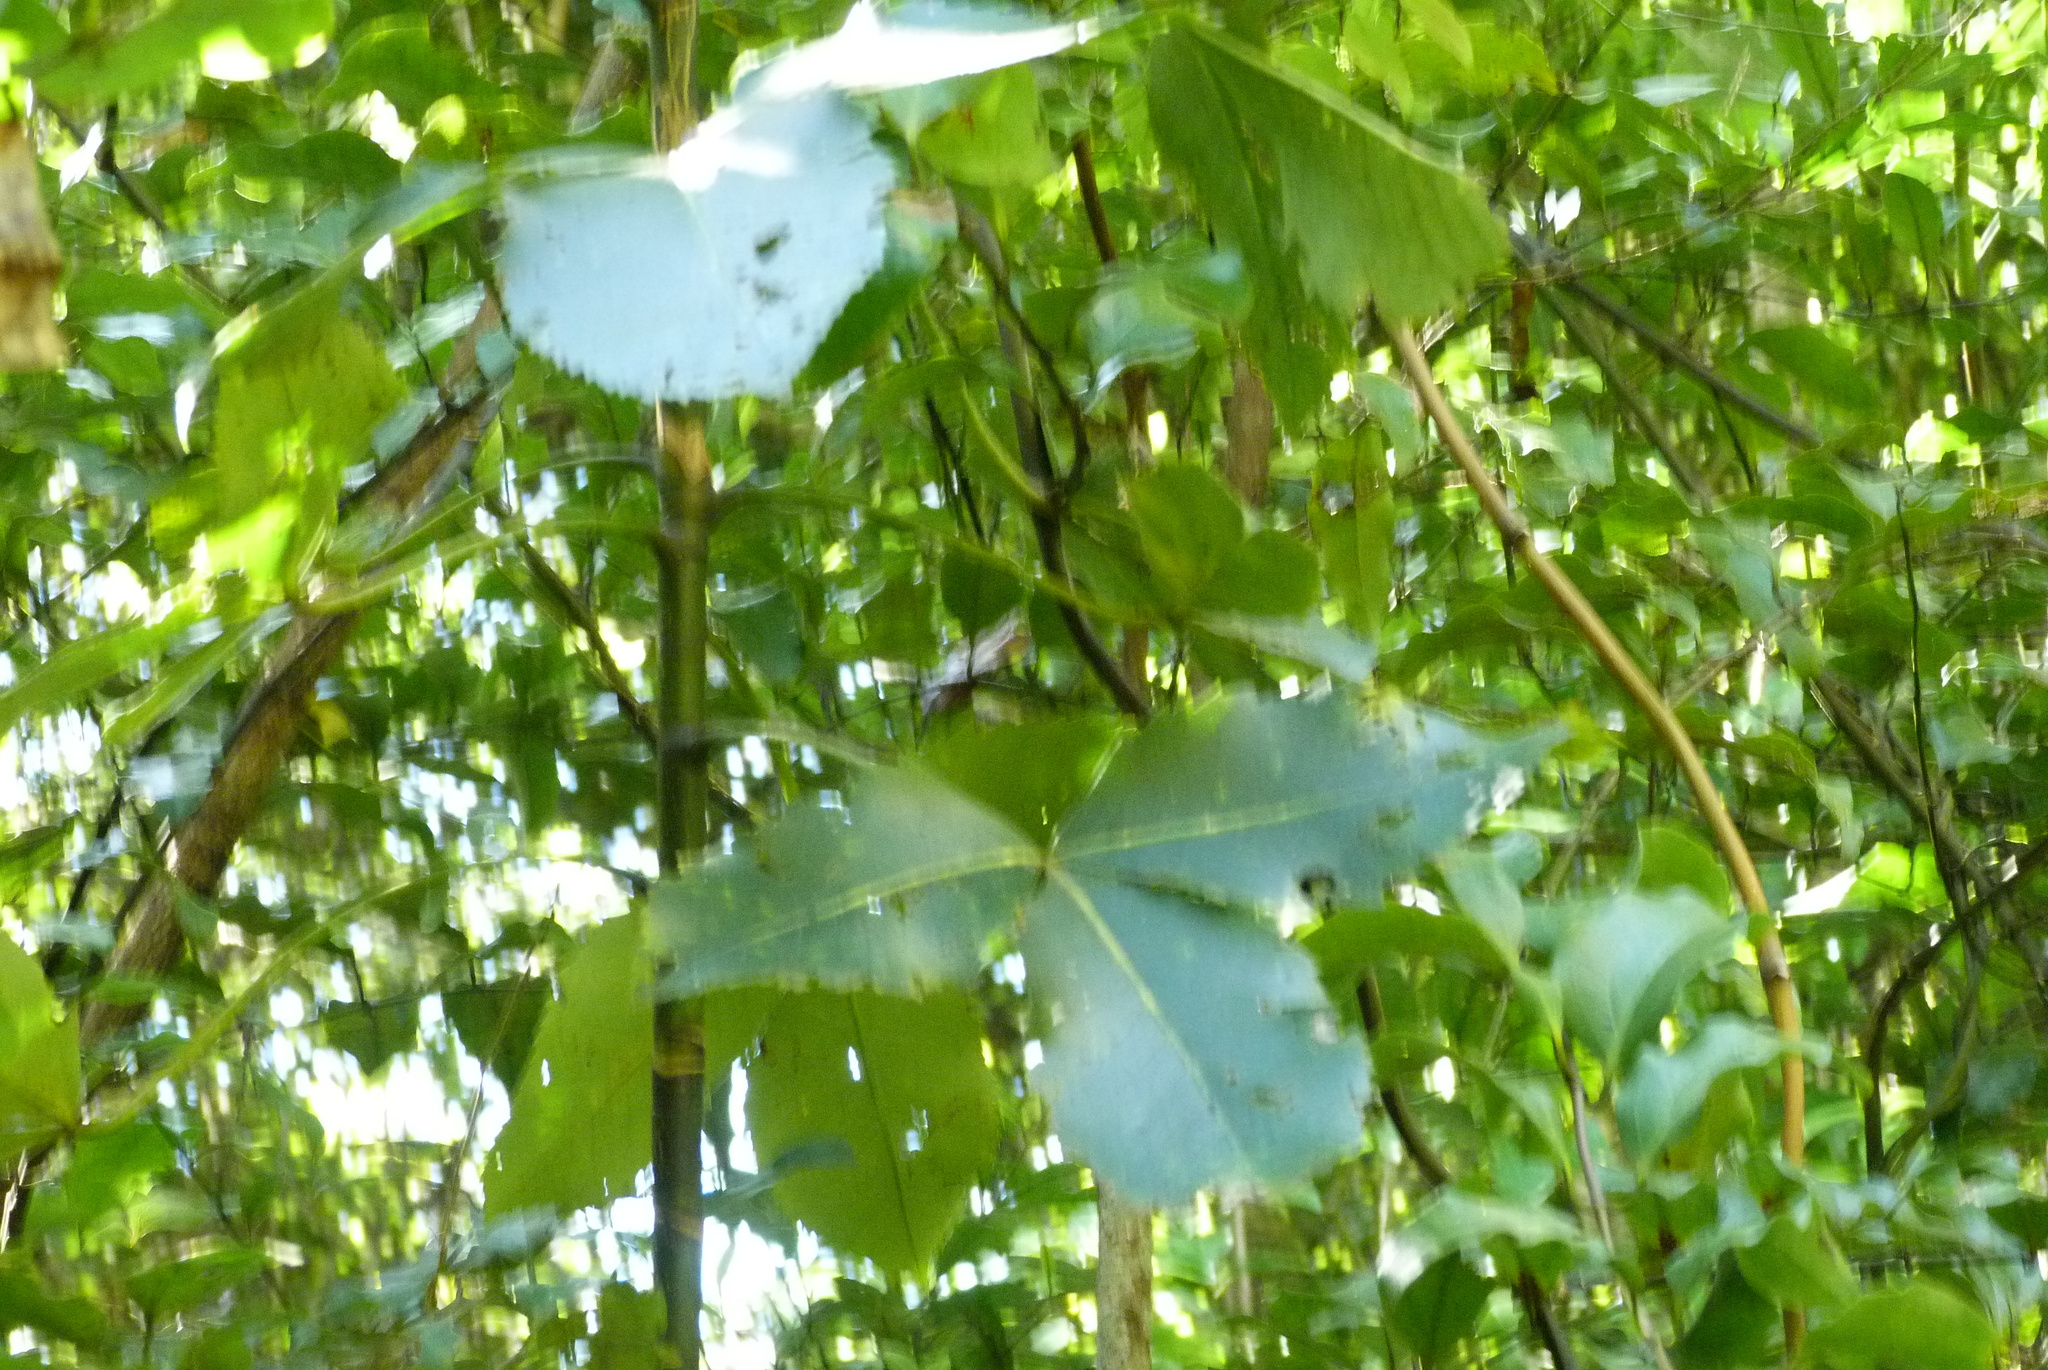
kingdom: Plantae
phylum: Tracheophyta
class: Magnoliopsida
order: Apiales
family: Araliaceae
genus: Neopanax
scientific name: Neopanax colensoi
